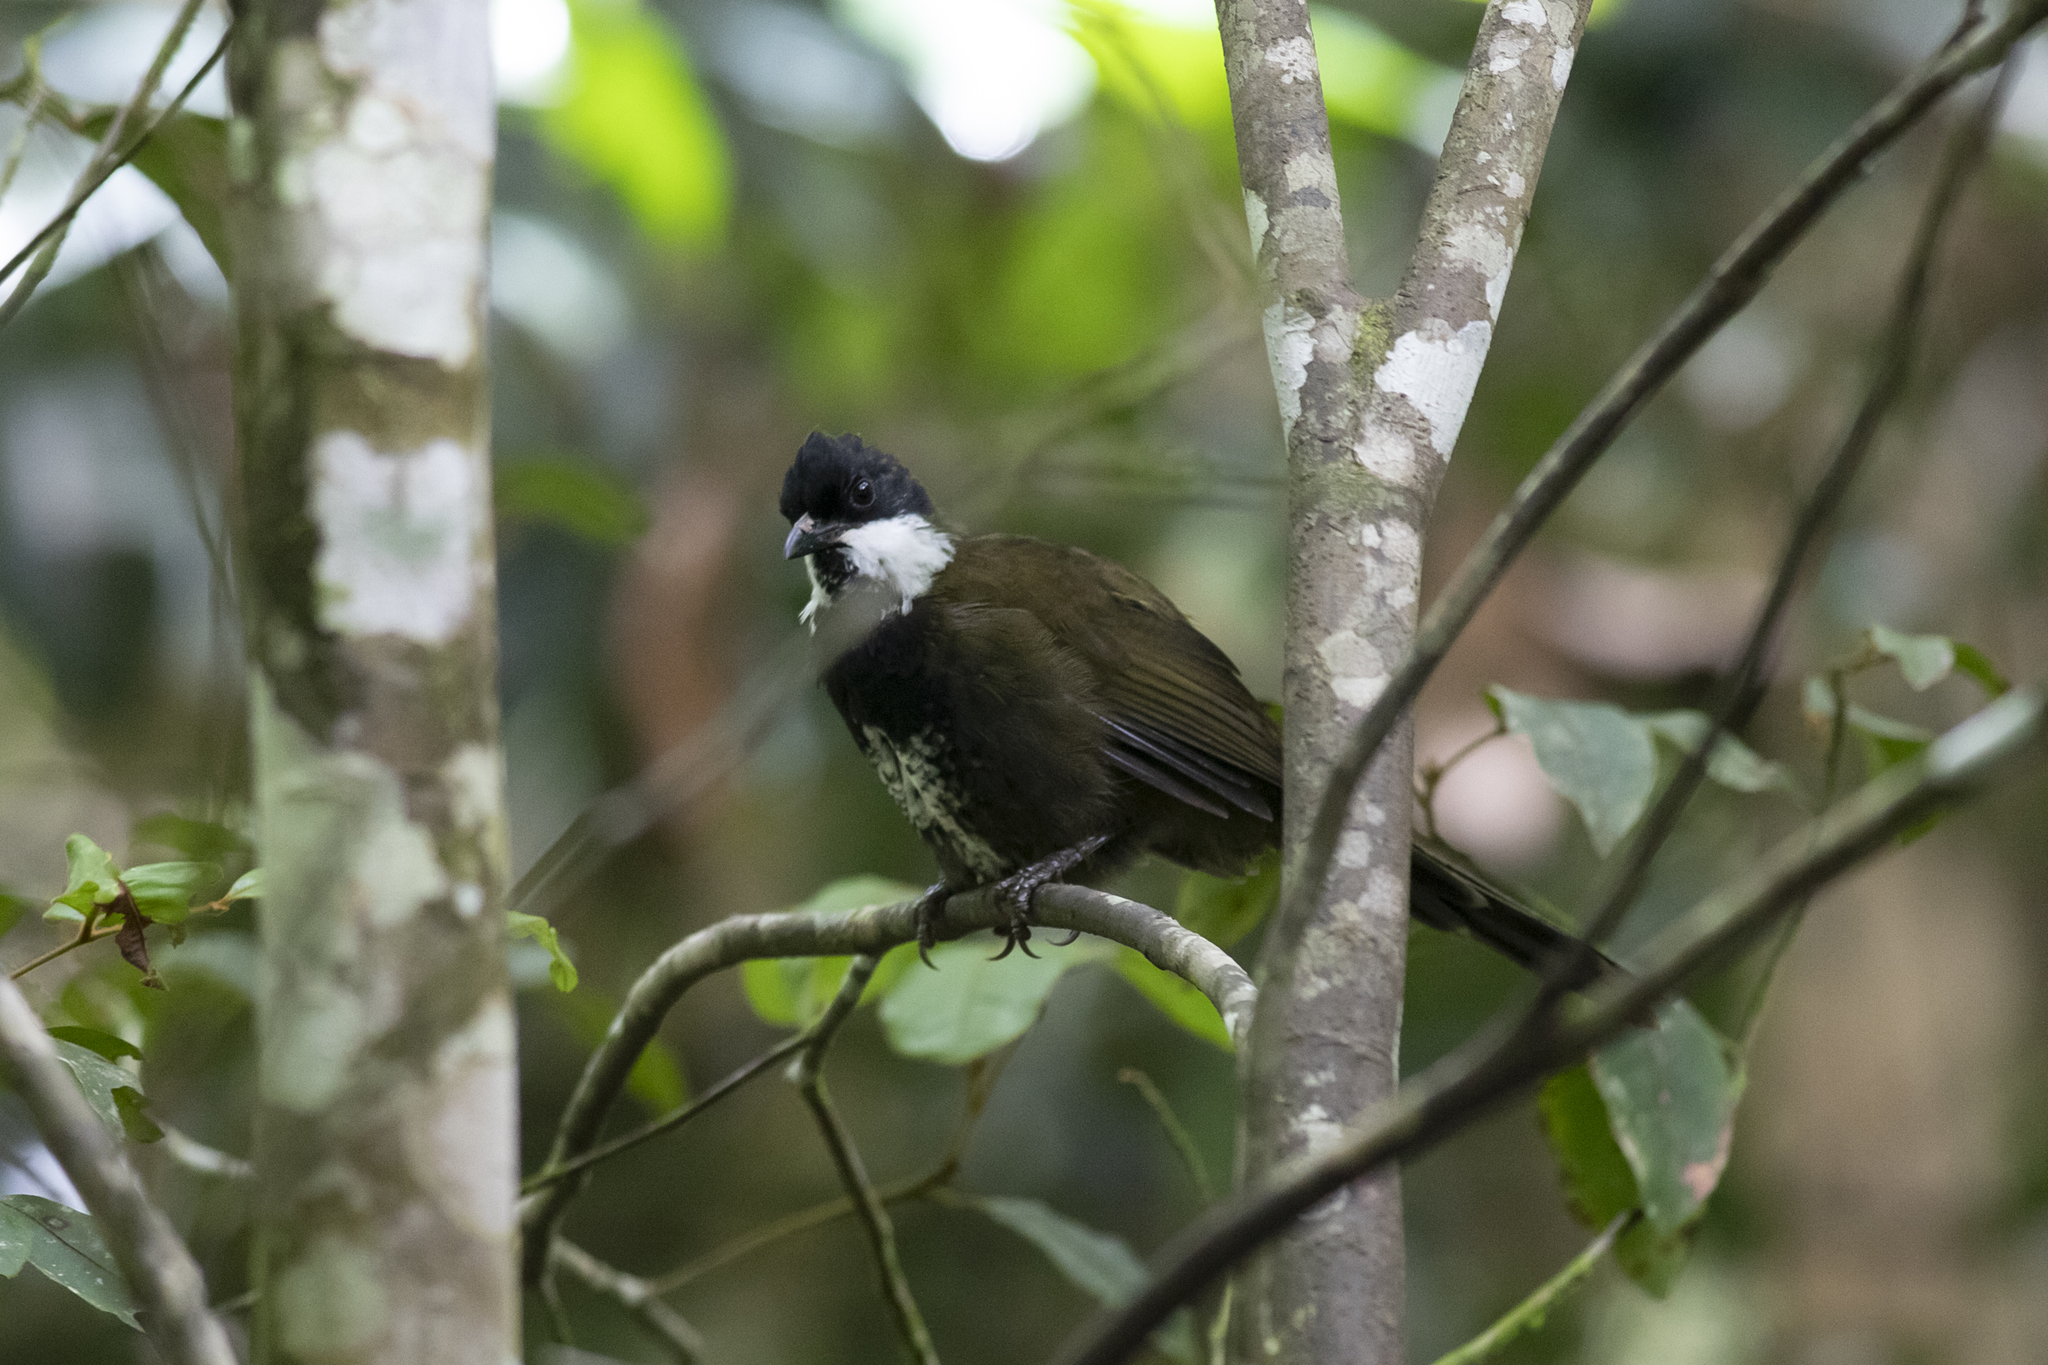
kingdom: Animalia
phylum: Chordata
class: Aves
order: Passeriformes
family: Psophodidae
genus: Psophodes
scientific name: Psophodes olivaceus
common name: Eastern whipbird
